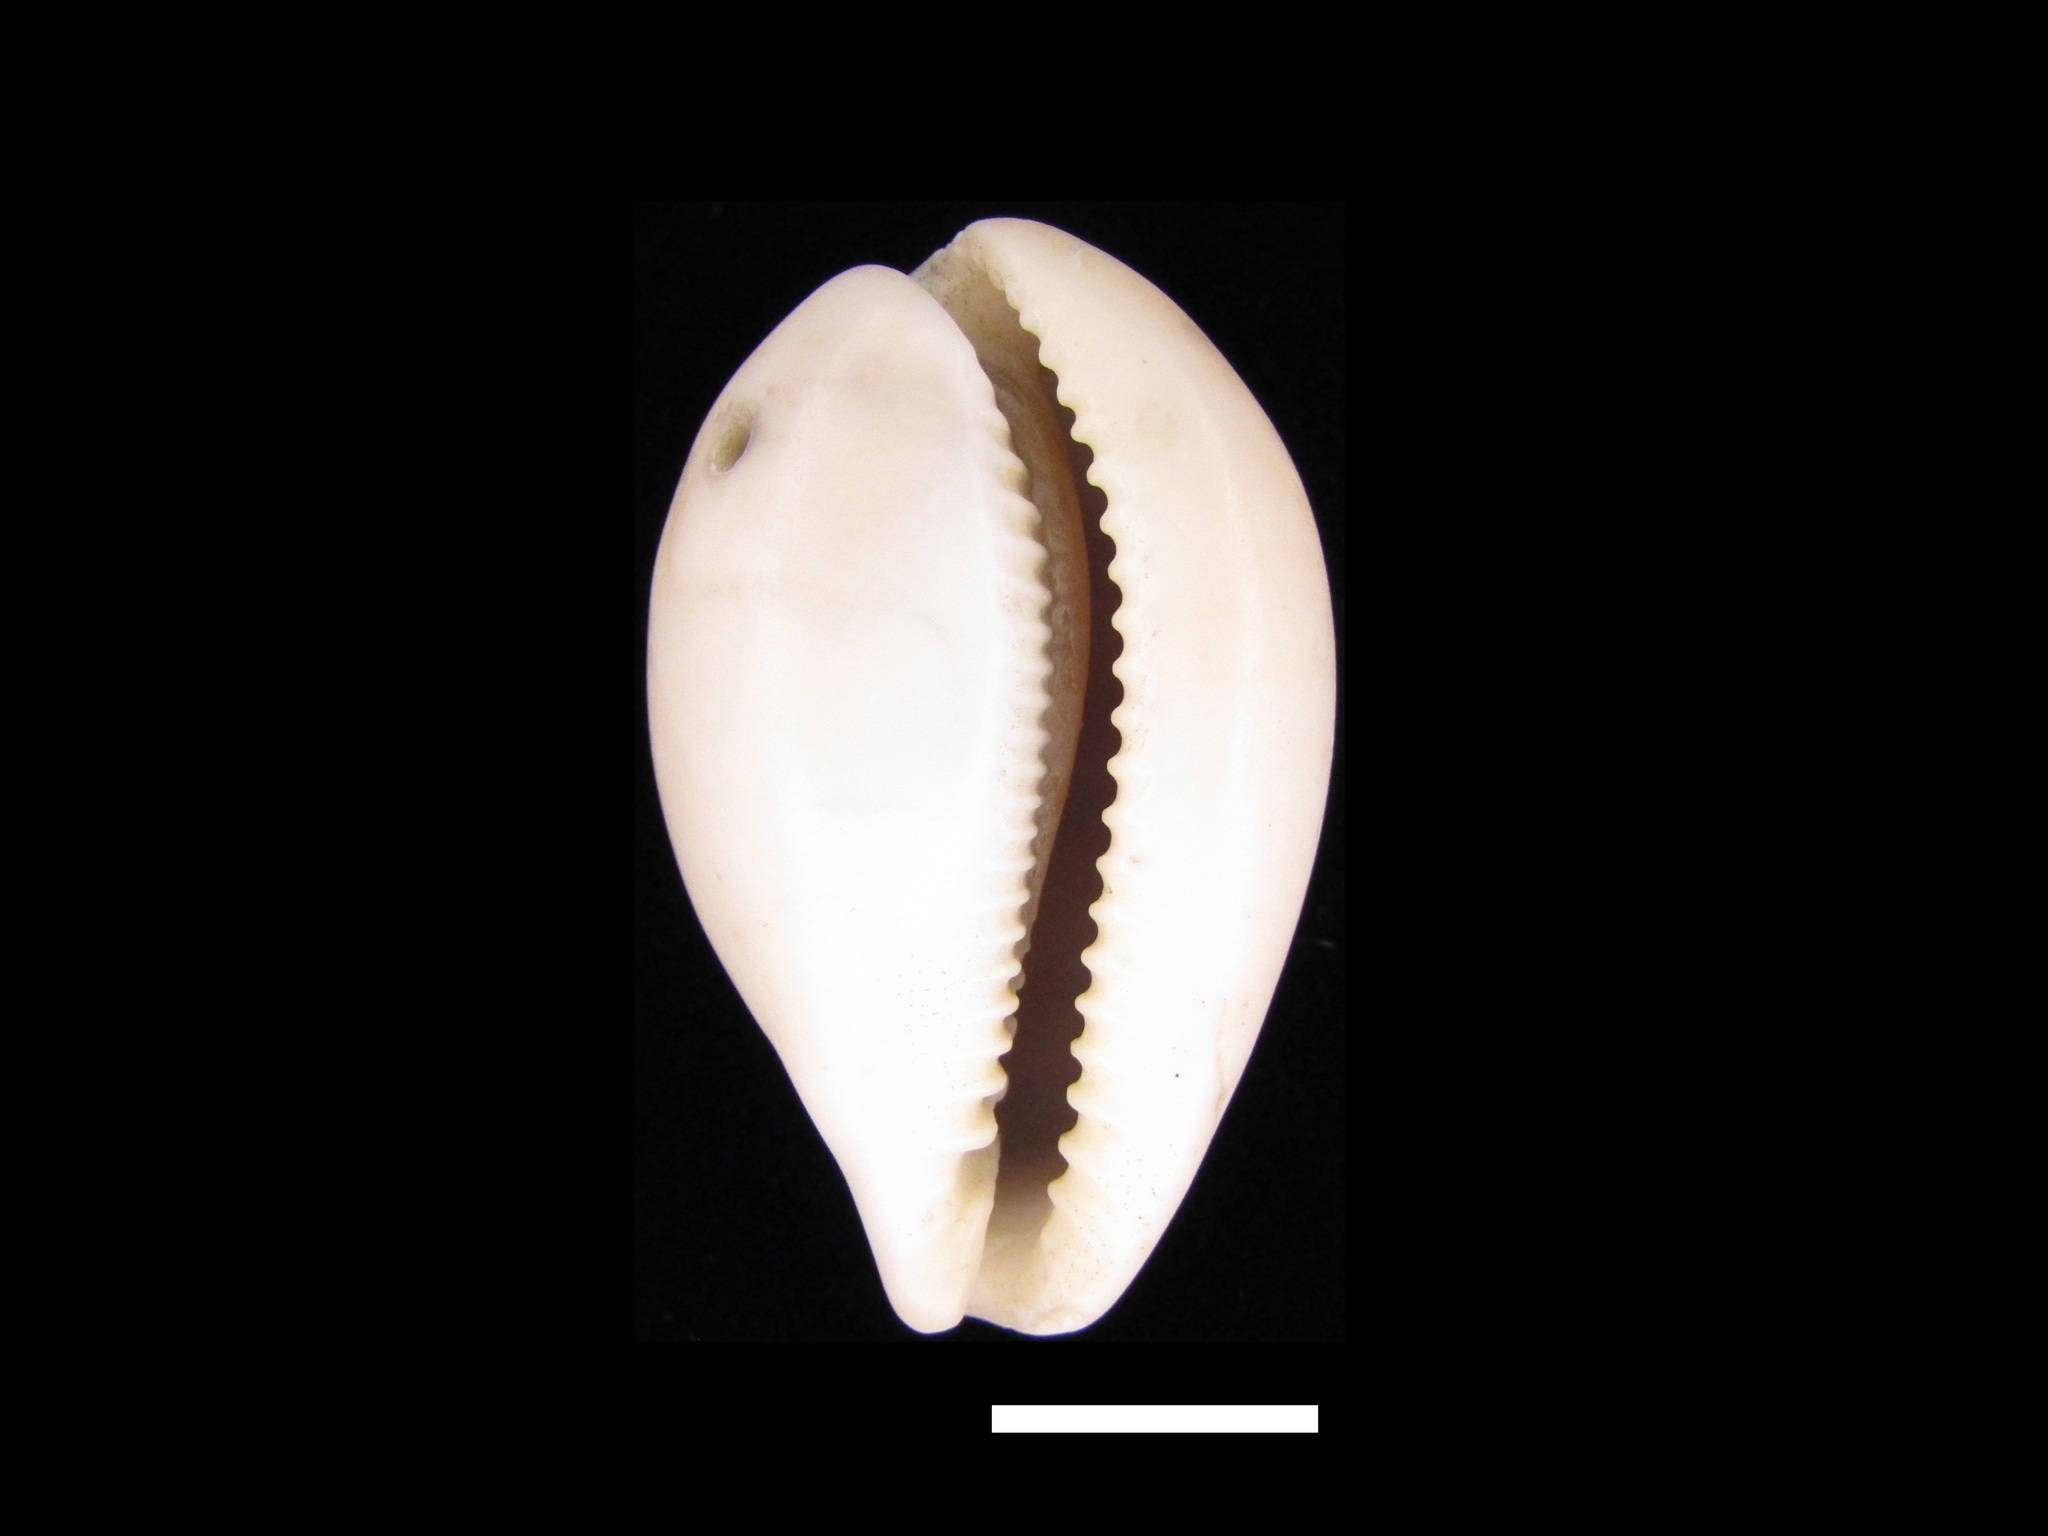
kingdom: Animalia
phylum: Mollusca
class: Gastropoda
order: Littorinimorpha
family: Cypraeidae
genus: Paradusta
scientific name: Paradusta hungerfordi
